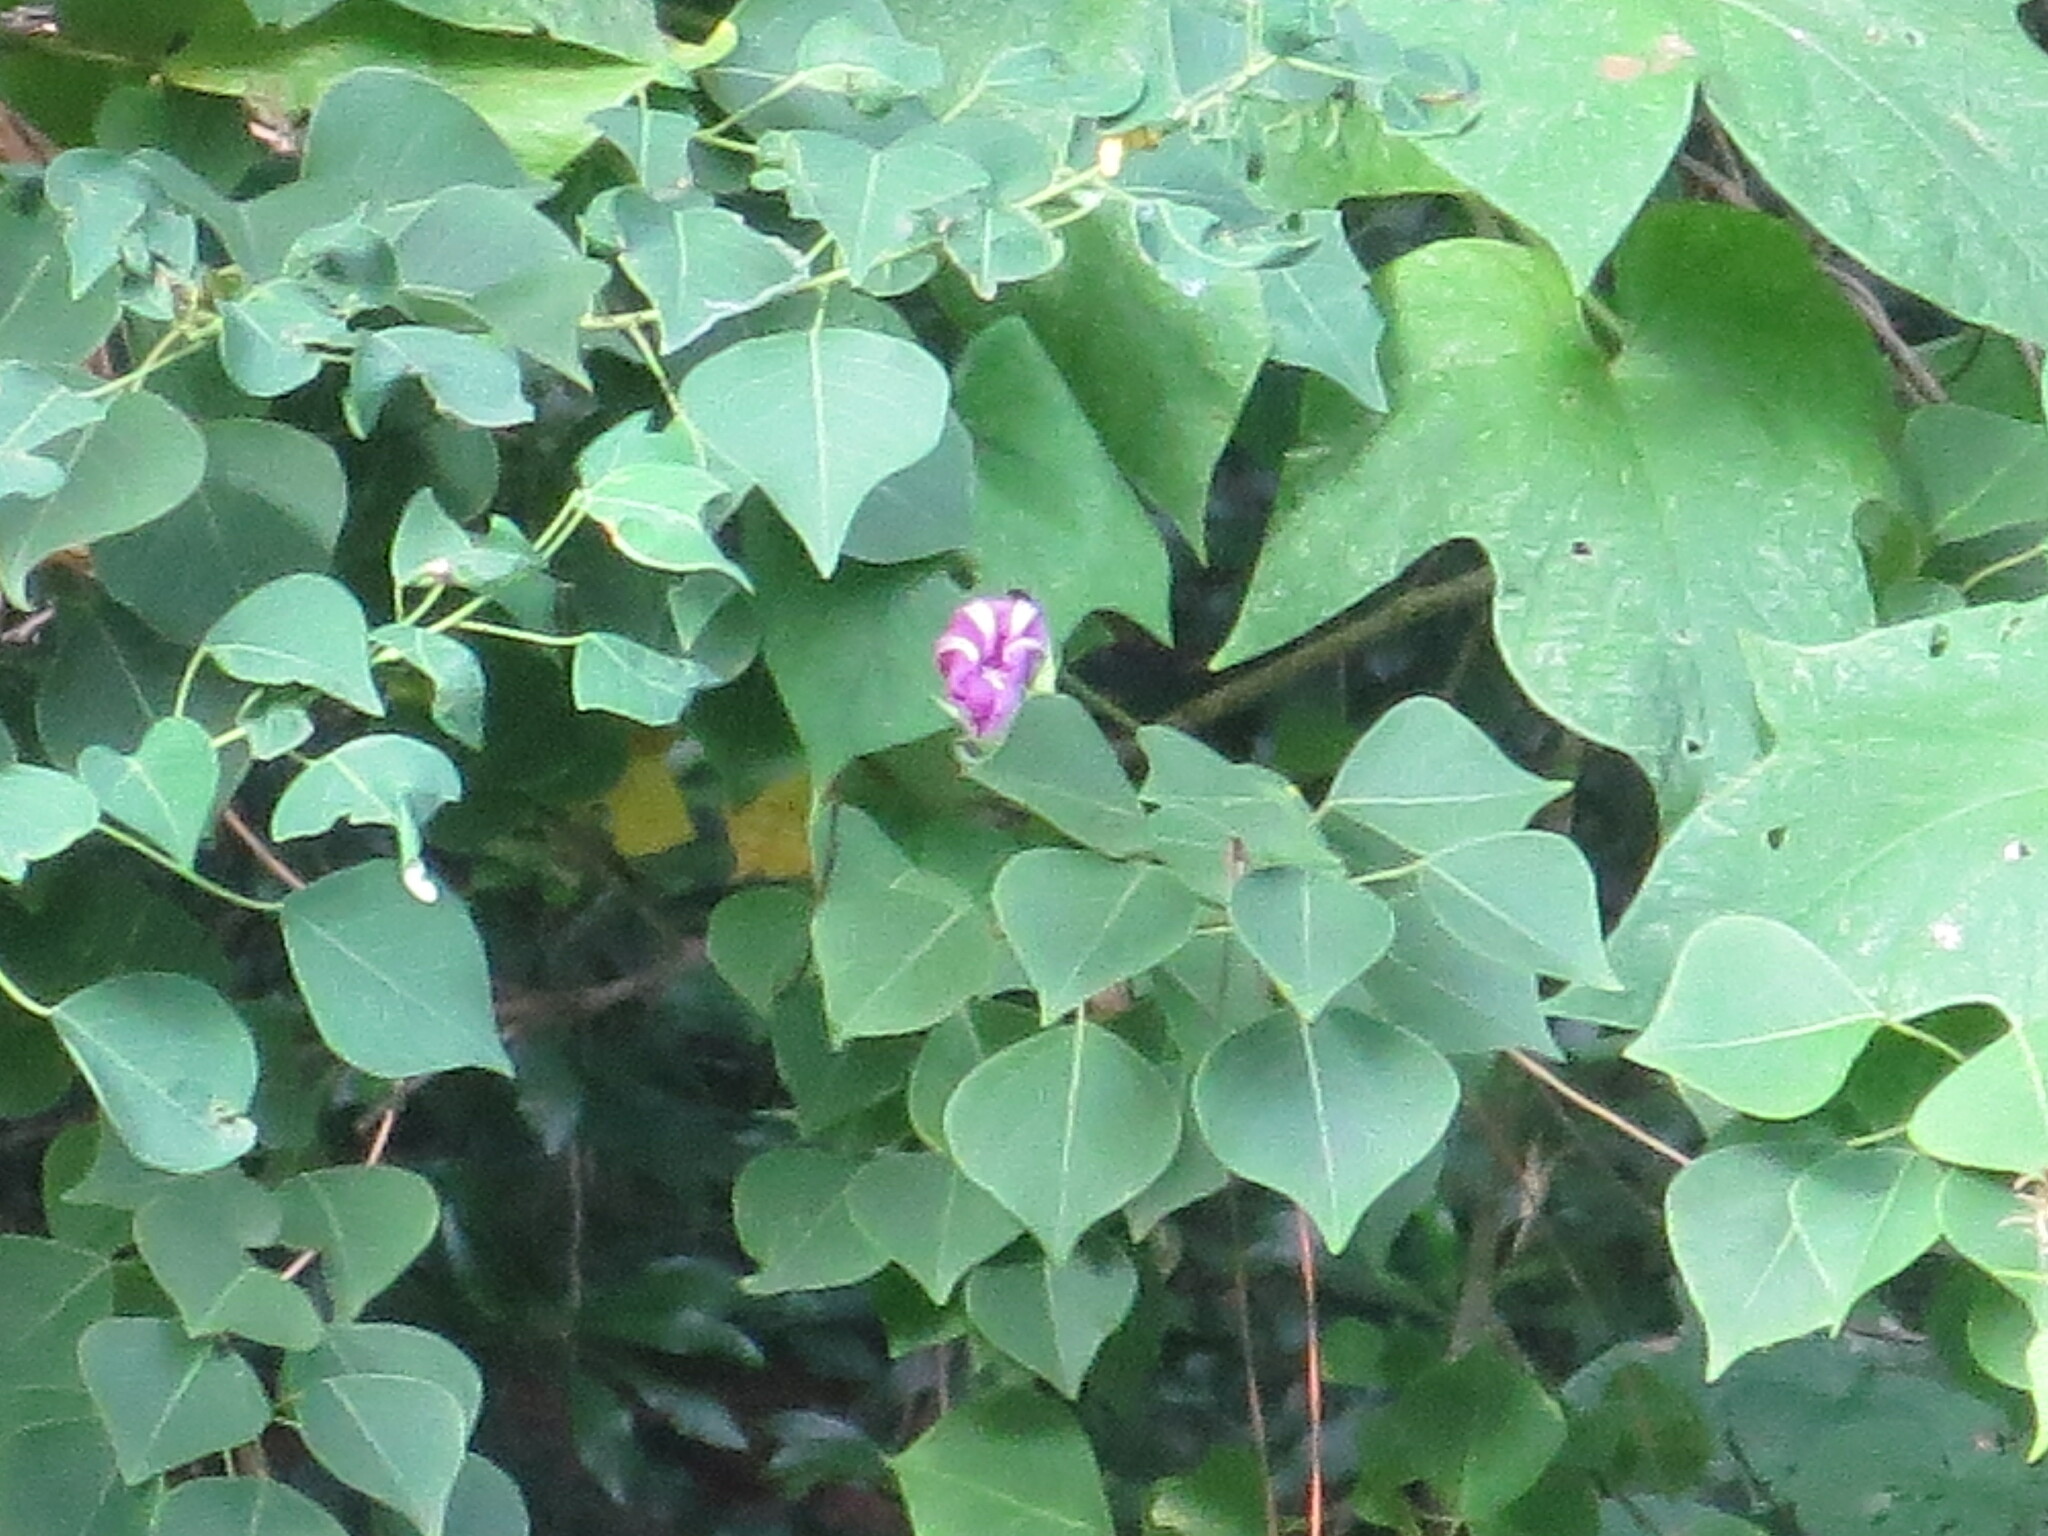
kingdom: Plantae
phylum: Tracheophyta
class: Magnoliopsida
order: Solanales
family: Convolvulaceae
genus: Ipomoea
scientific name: Ipomoea indica
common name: Blue dawnflower
